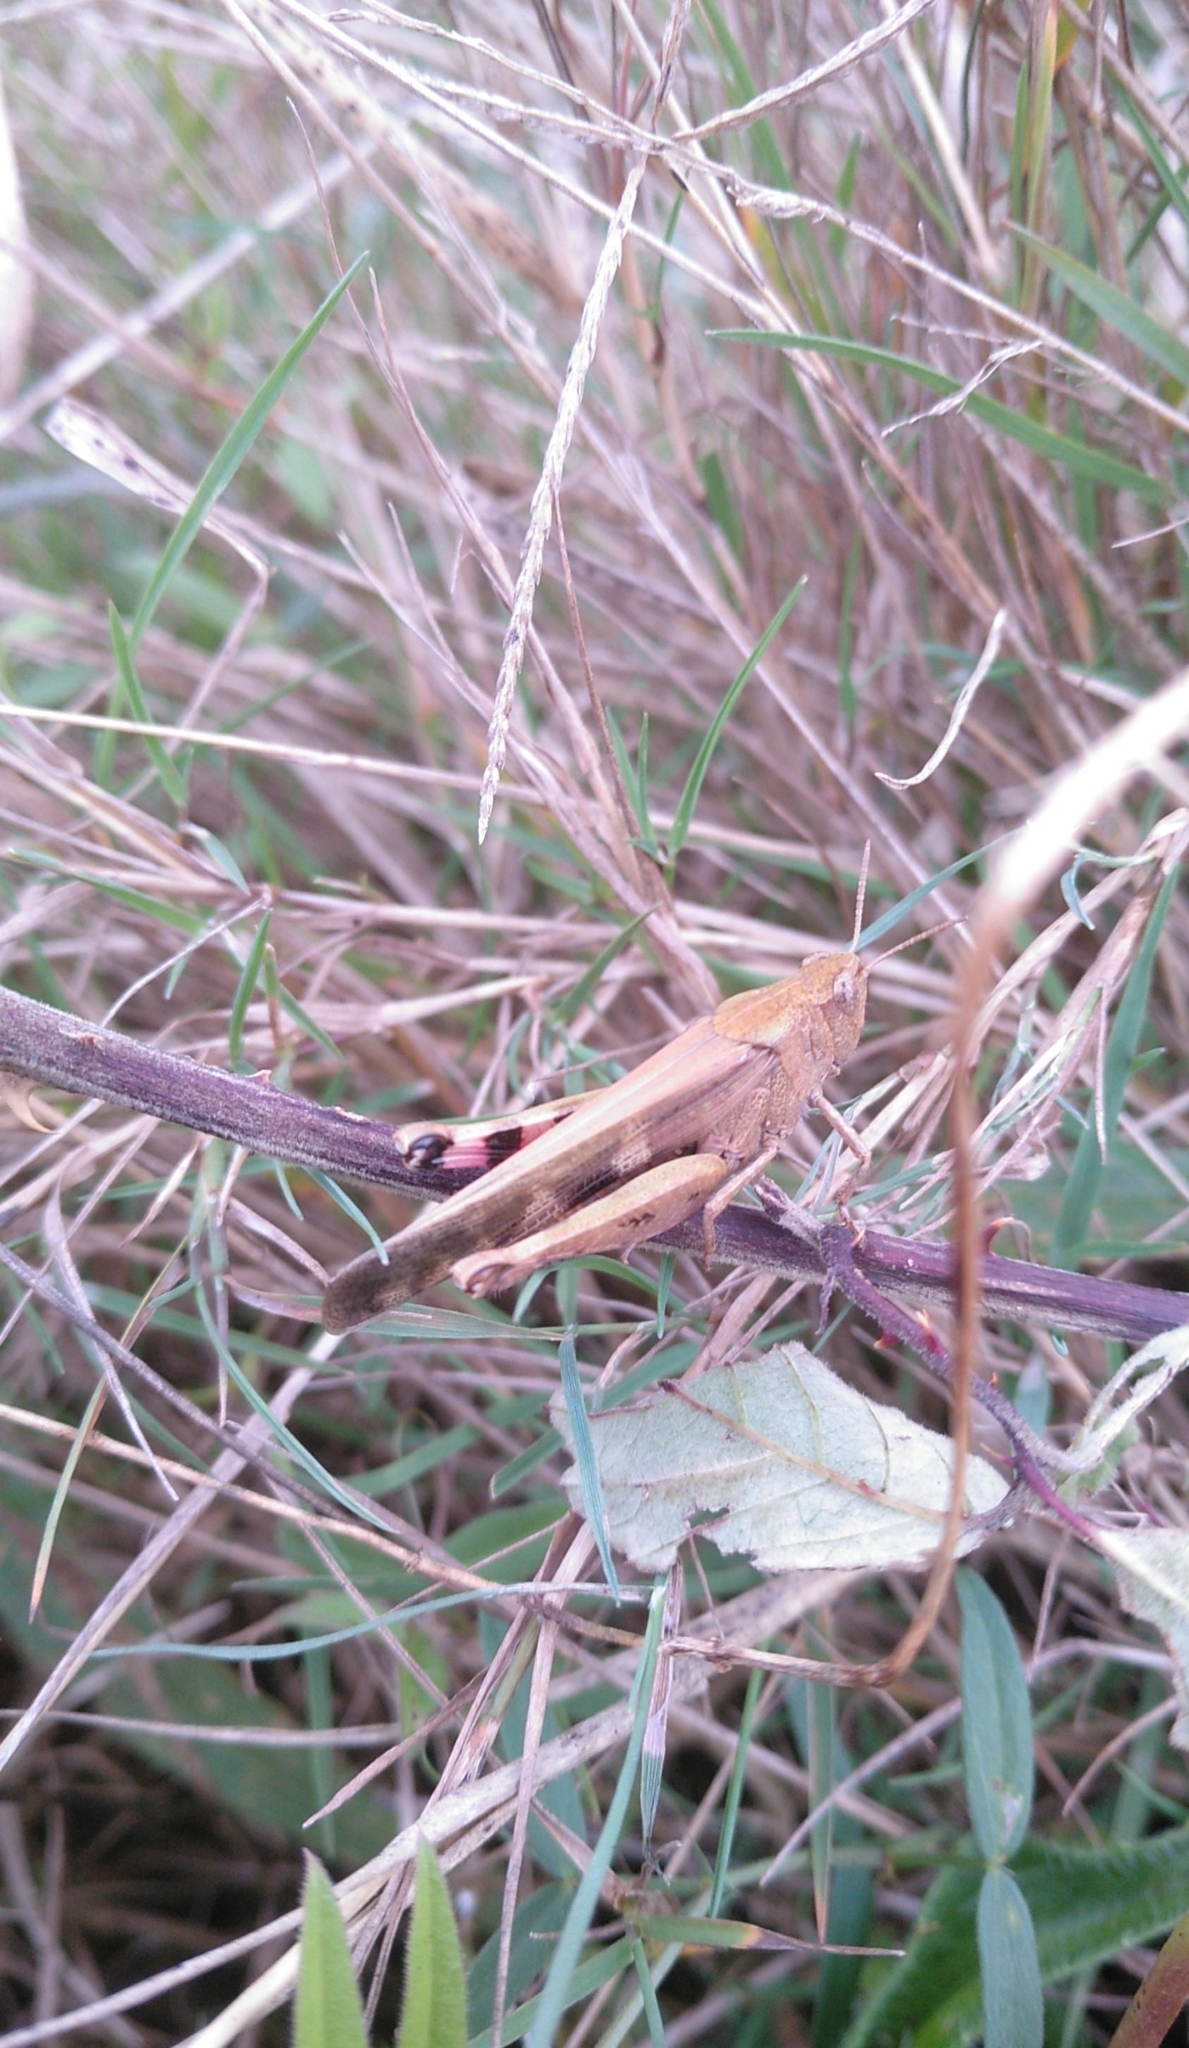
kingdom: Animalia
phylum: Arthropoda
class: Insecta
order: Orthoptera
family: Acrididae
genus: Aiolopus
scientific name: Aiolopus strepens
